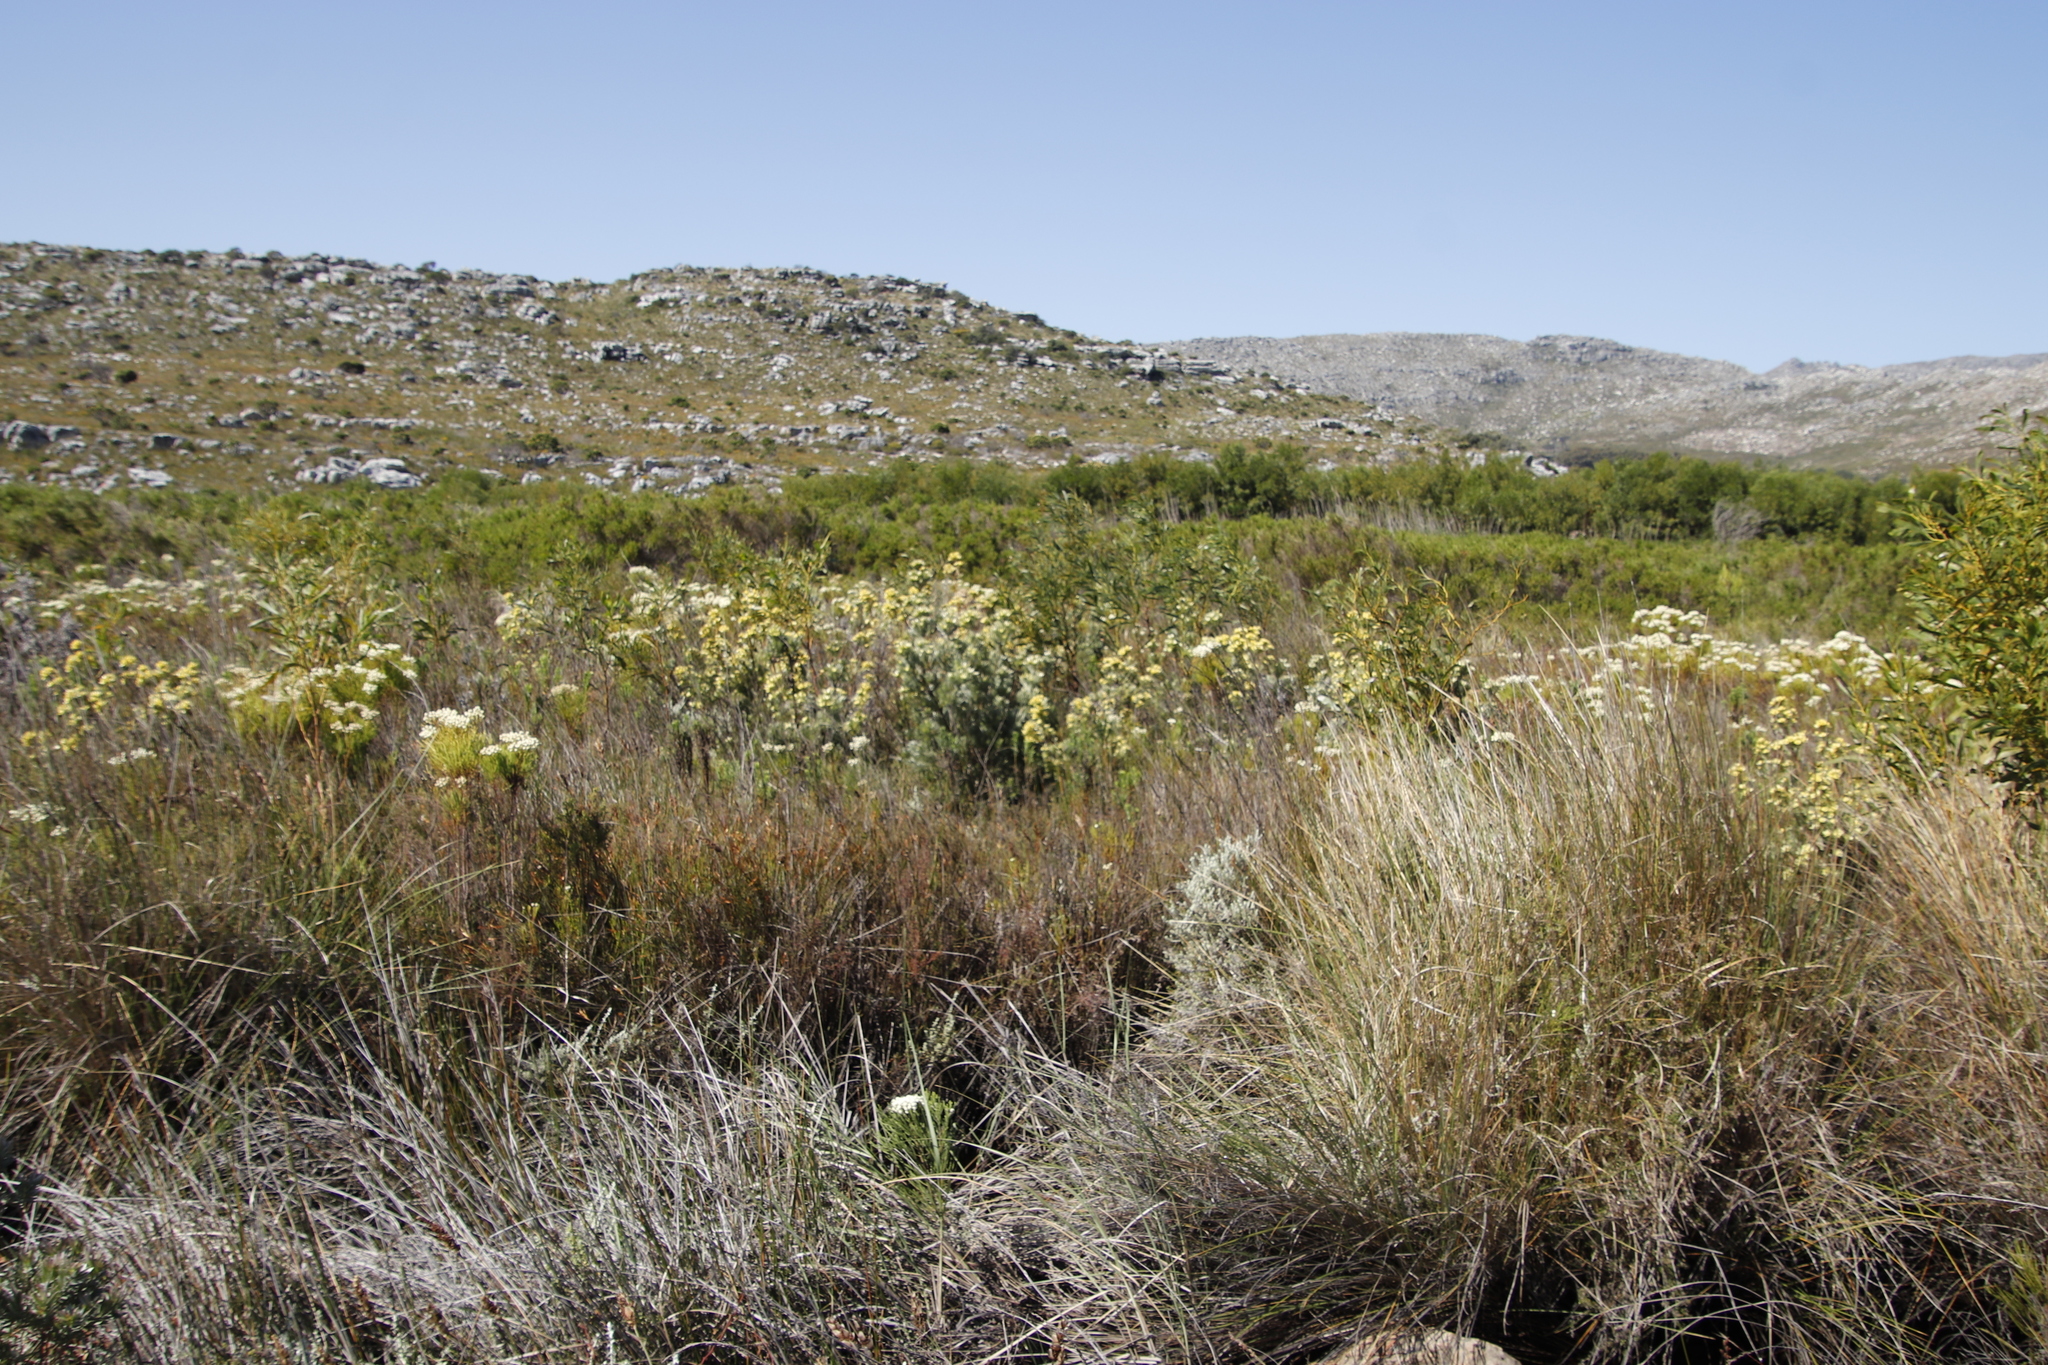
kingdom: Plantae
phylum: Tracheophyta
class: Magnoliopsida
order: Proteales
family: Proteaceae
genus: Leucadendron
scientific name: Leucadendron floridum
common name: Flats conebush
